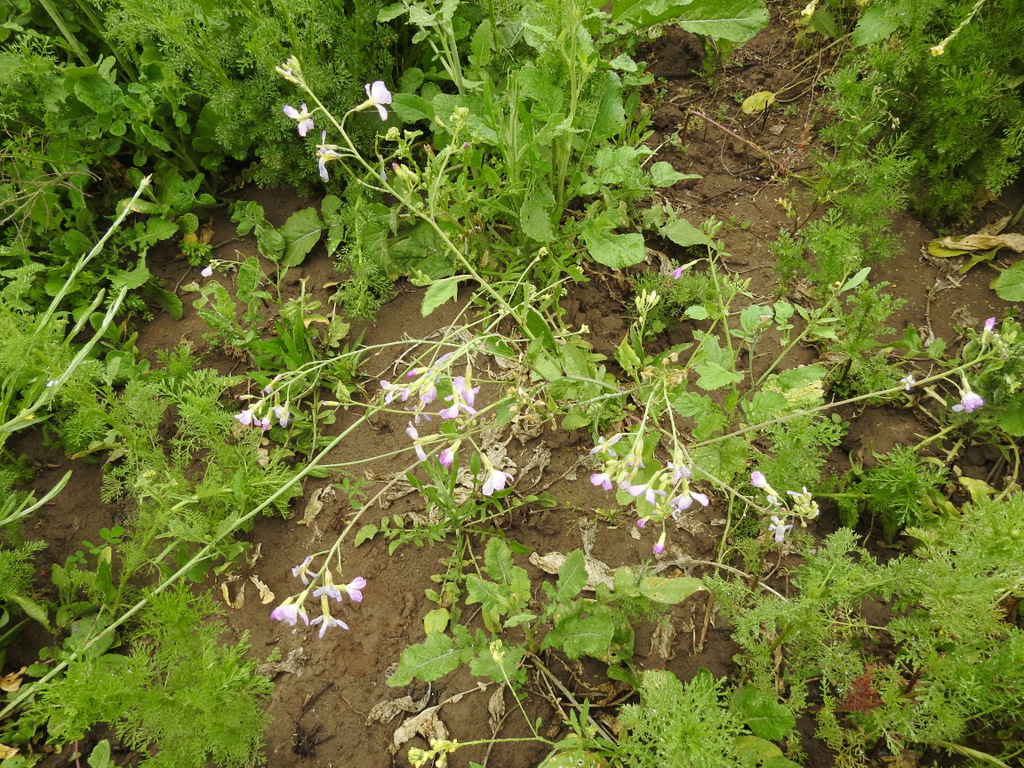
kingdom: Plantae
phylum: Tracheophyta
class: Magnoliopsida
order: Brassicales
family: Brassicaceae
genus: Raphanus
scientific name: Raphanus sativus
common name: Cultivated radish
